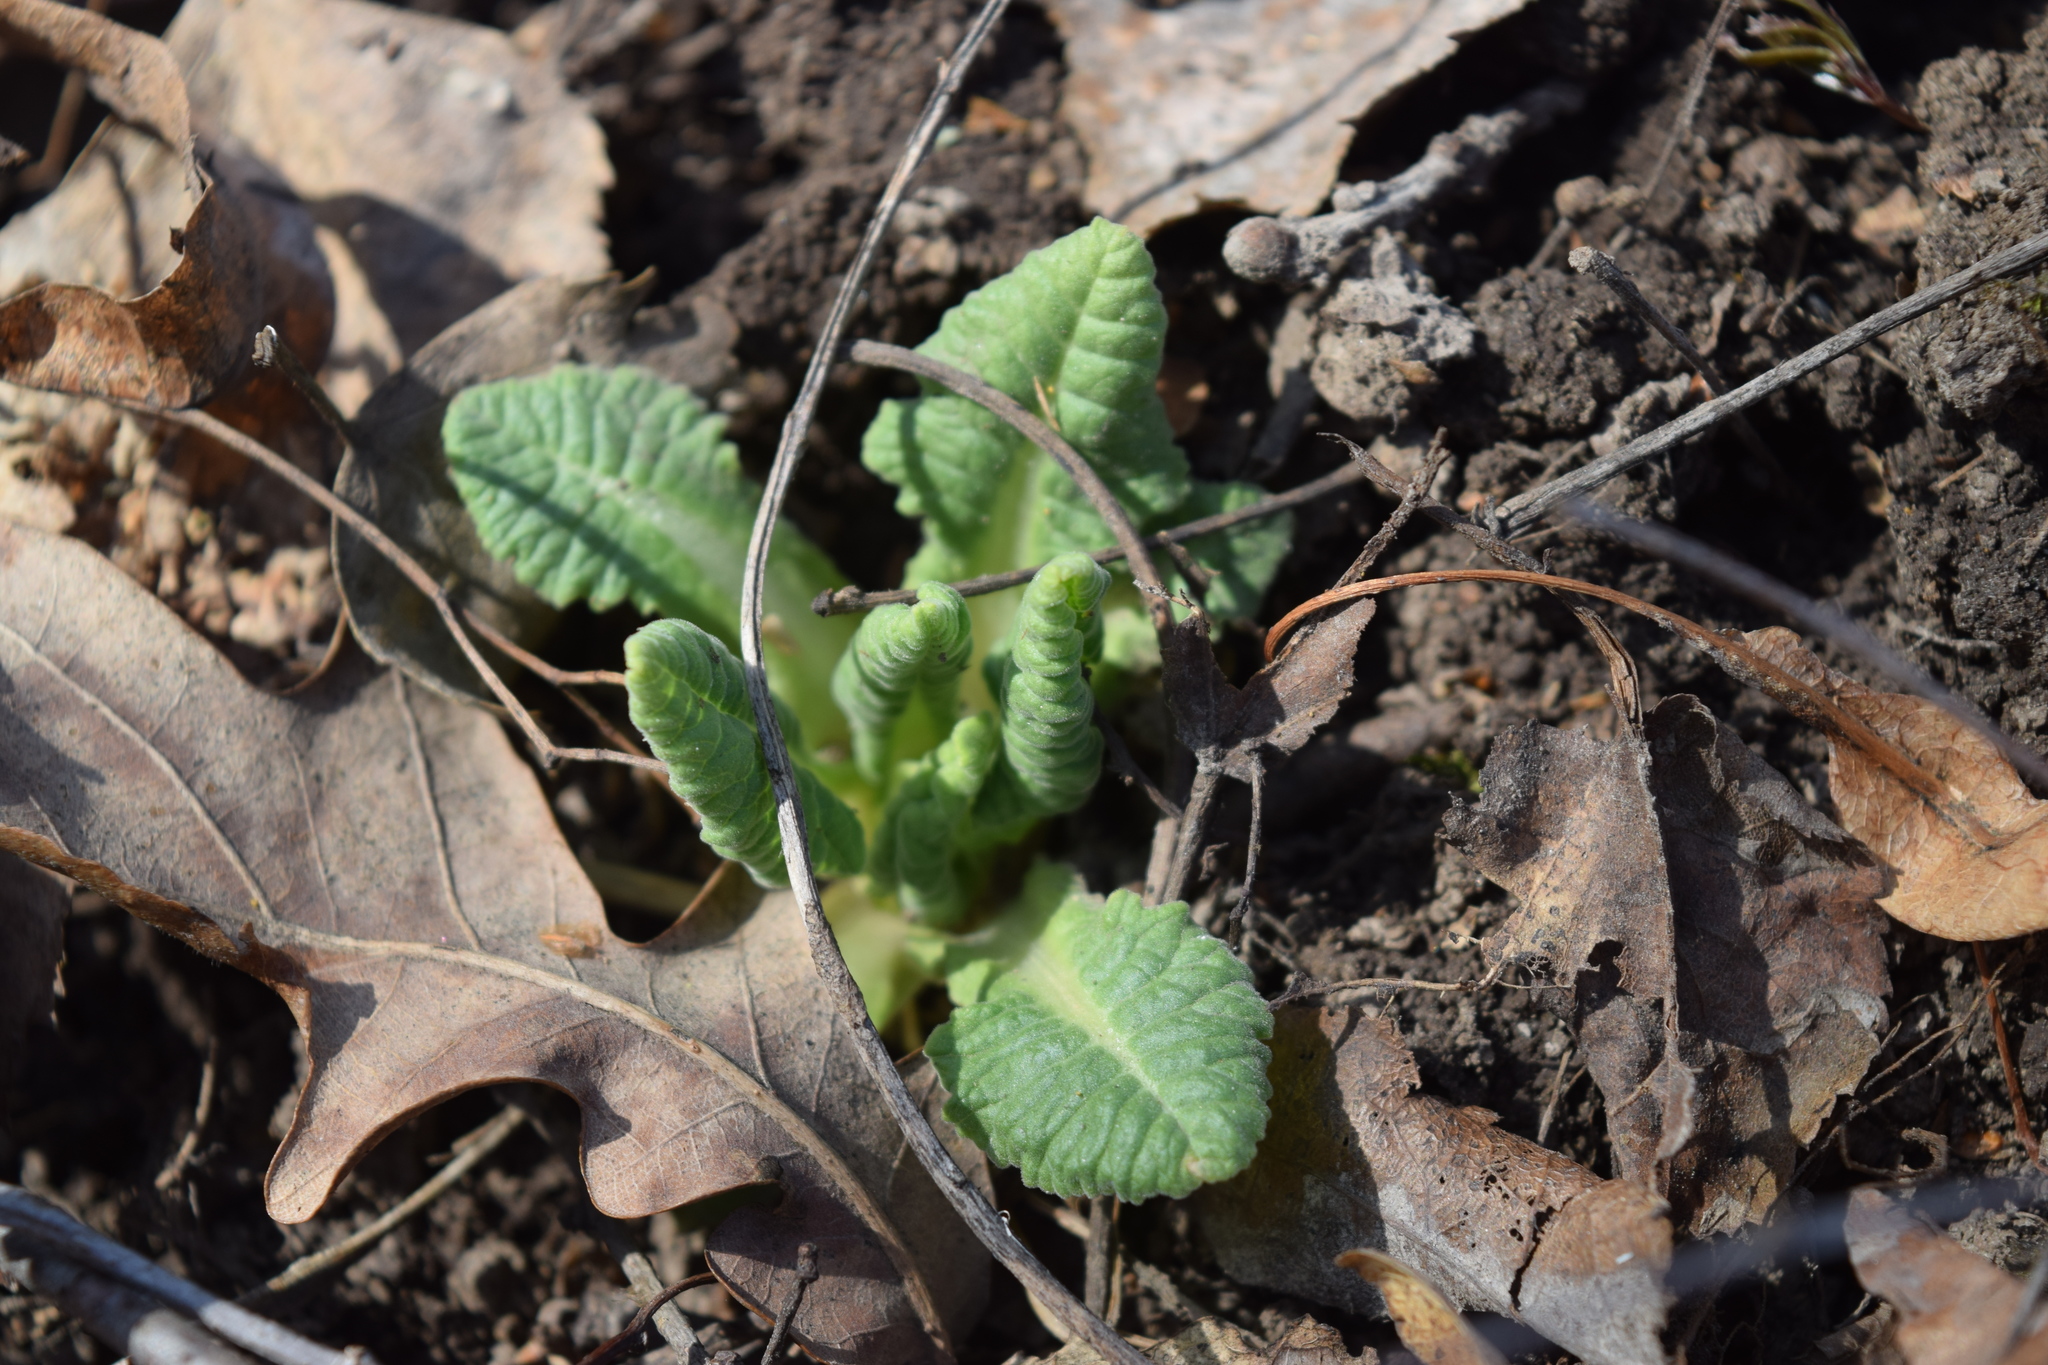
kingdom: Plantae
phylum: Tracheophyta
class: Magnoliopsida
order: Ericales
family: Primulaceae
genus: Primula
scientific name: Primula veris
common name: Cowslip
